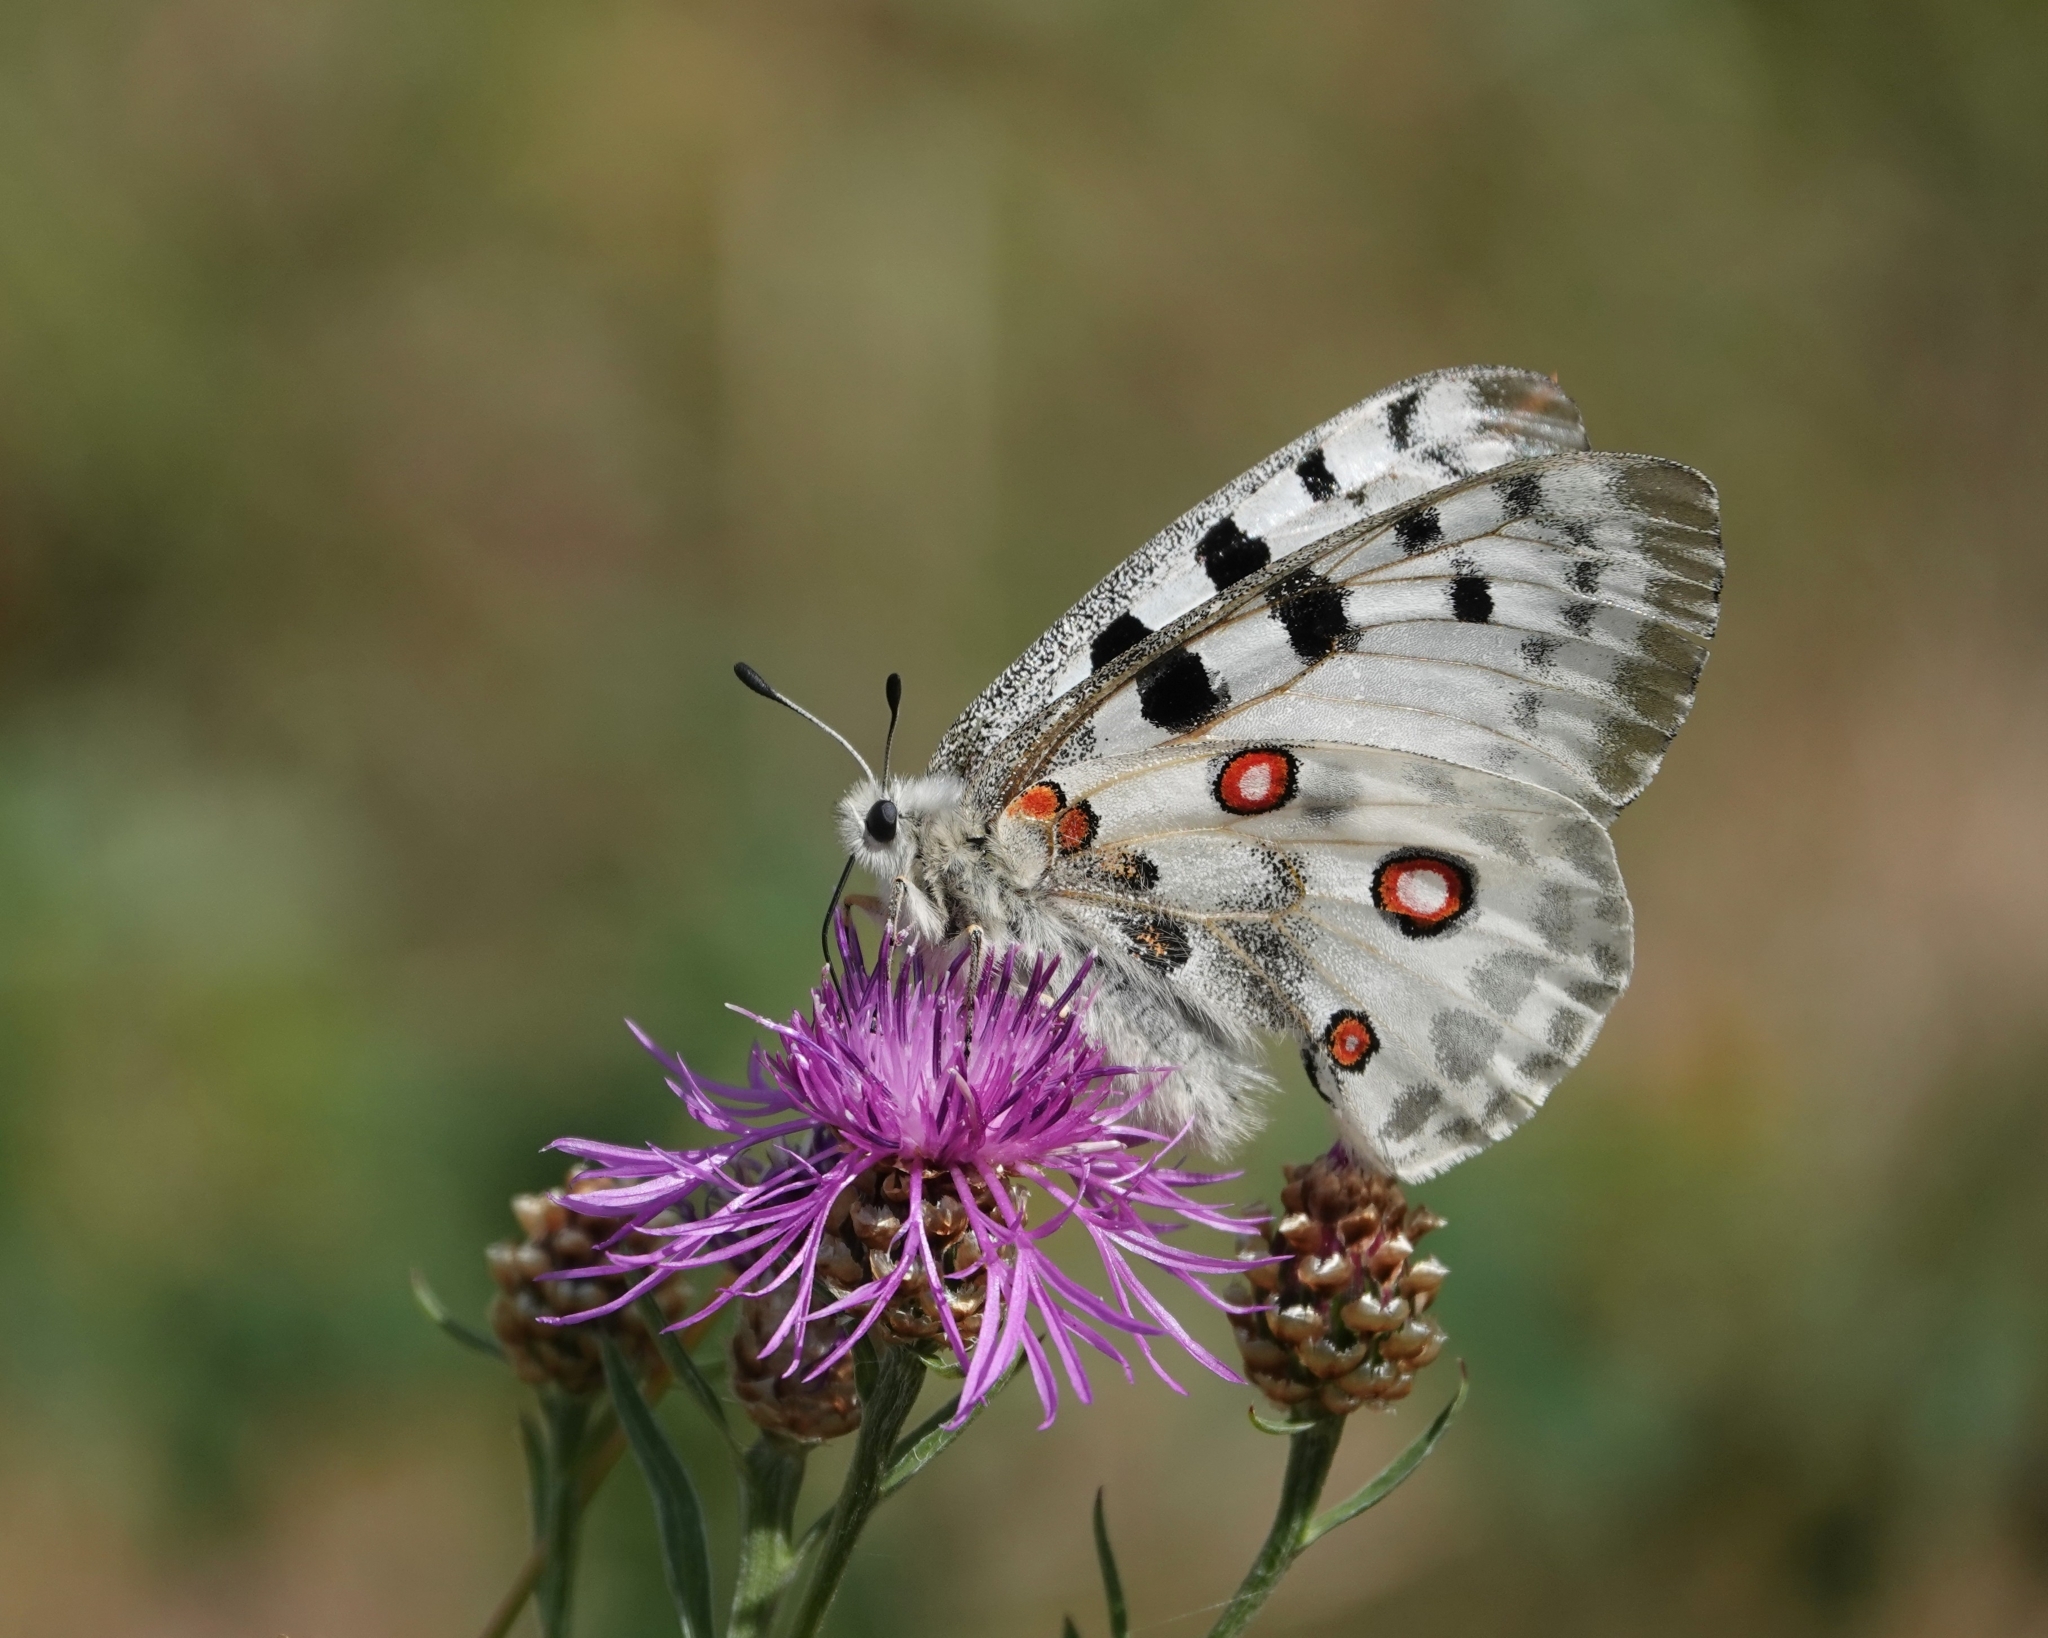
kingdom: Animalia
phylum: Arthropoda
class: Insecta
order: Lepidoptera
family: Papilionidae
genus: Parnassius
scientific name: Parnassius apollo
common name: Apollo
